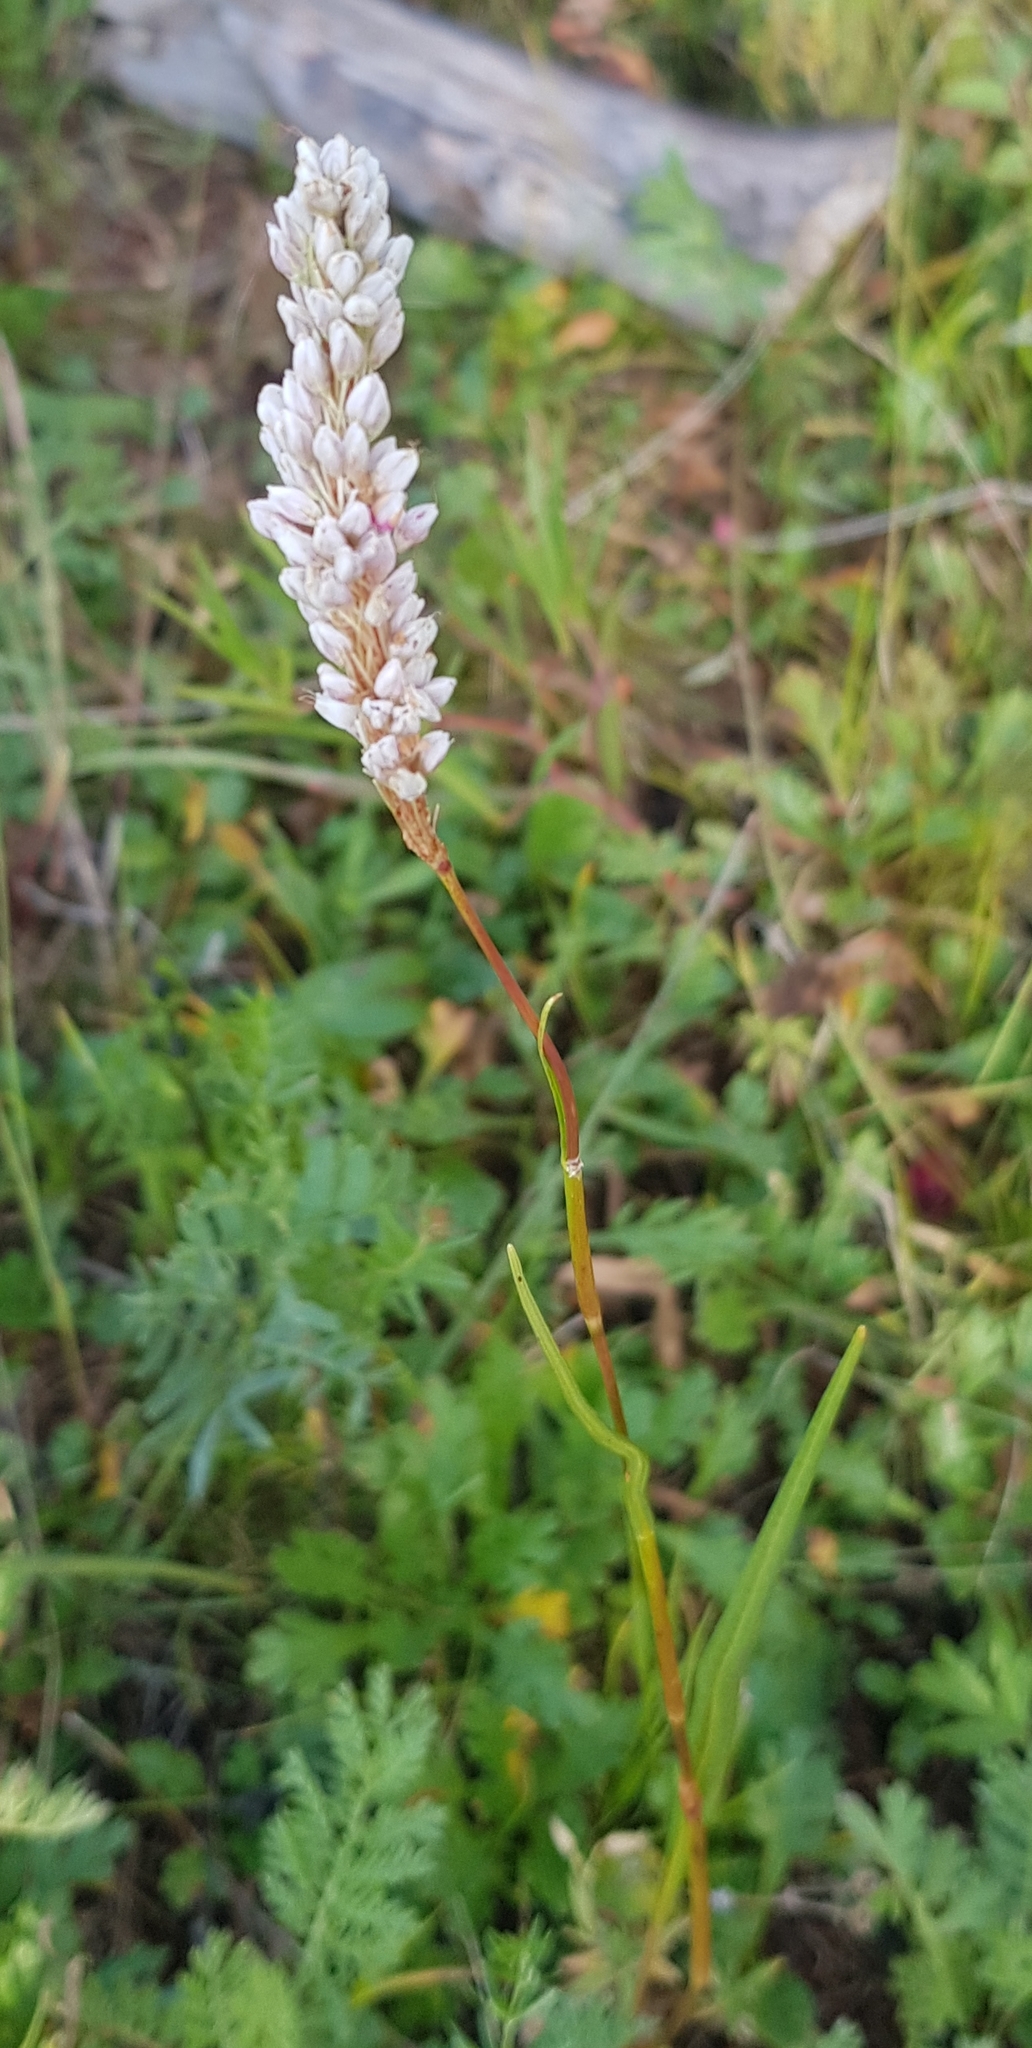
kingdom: Plantae
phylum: Tracheophyta
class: Magnoliopsida
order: Caryophyllales
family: Polygonaceae
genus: Bistorta
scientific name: Bistorta vivipara
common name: Alpine bistort
